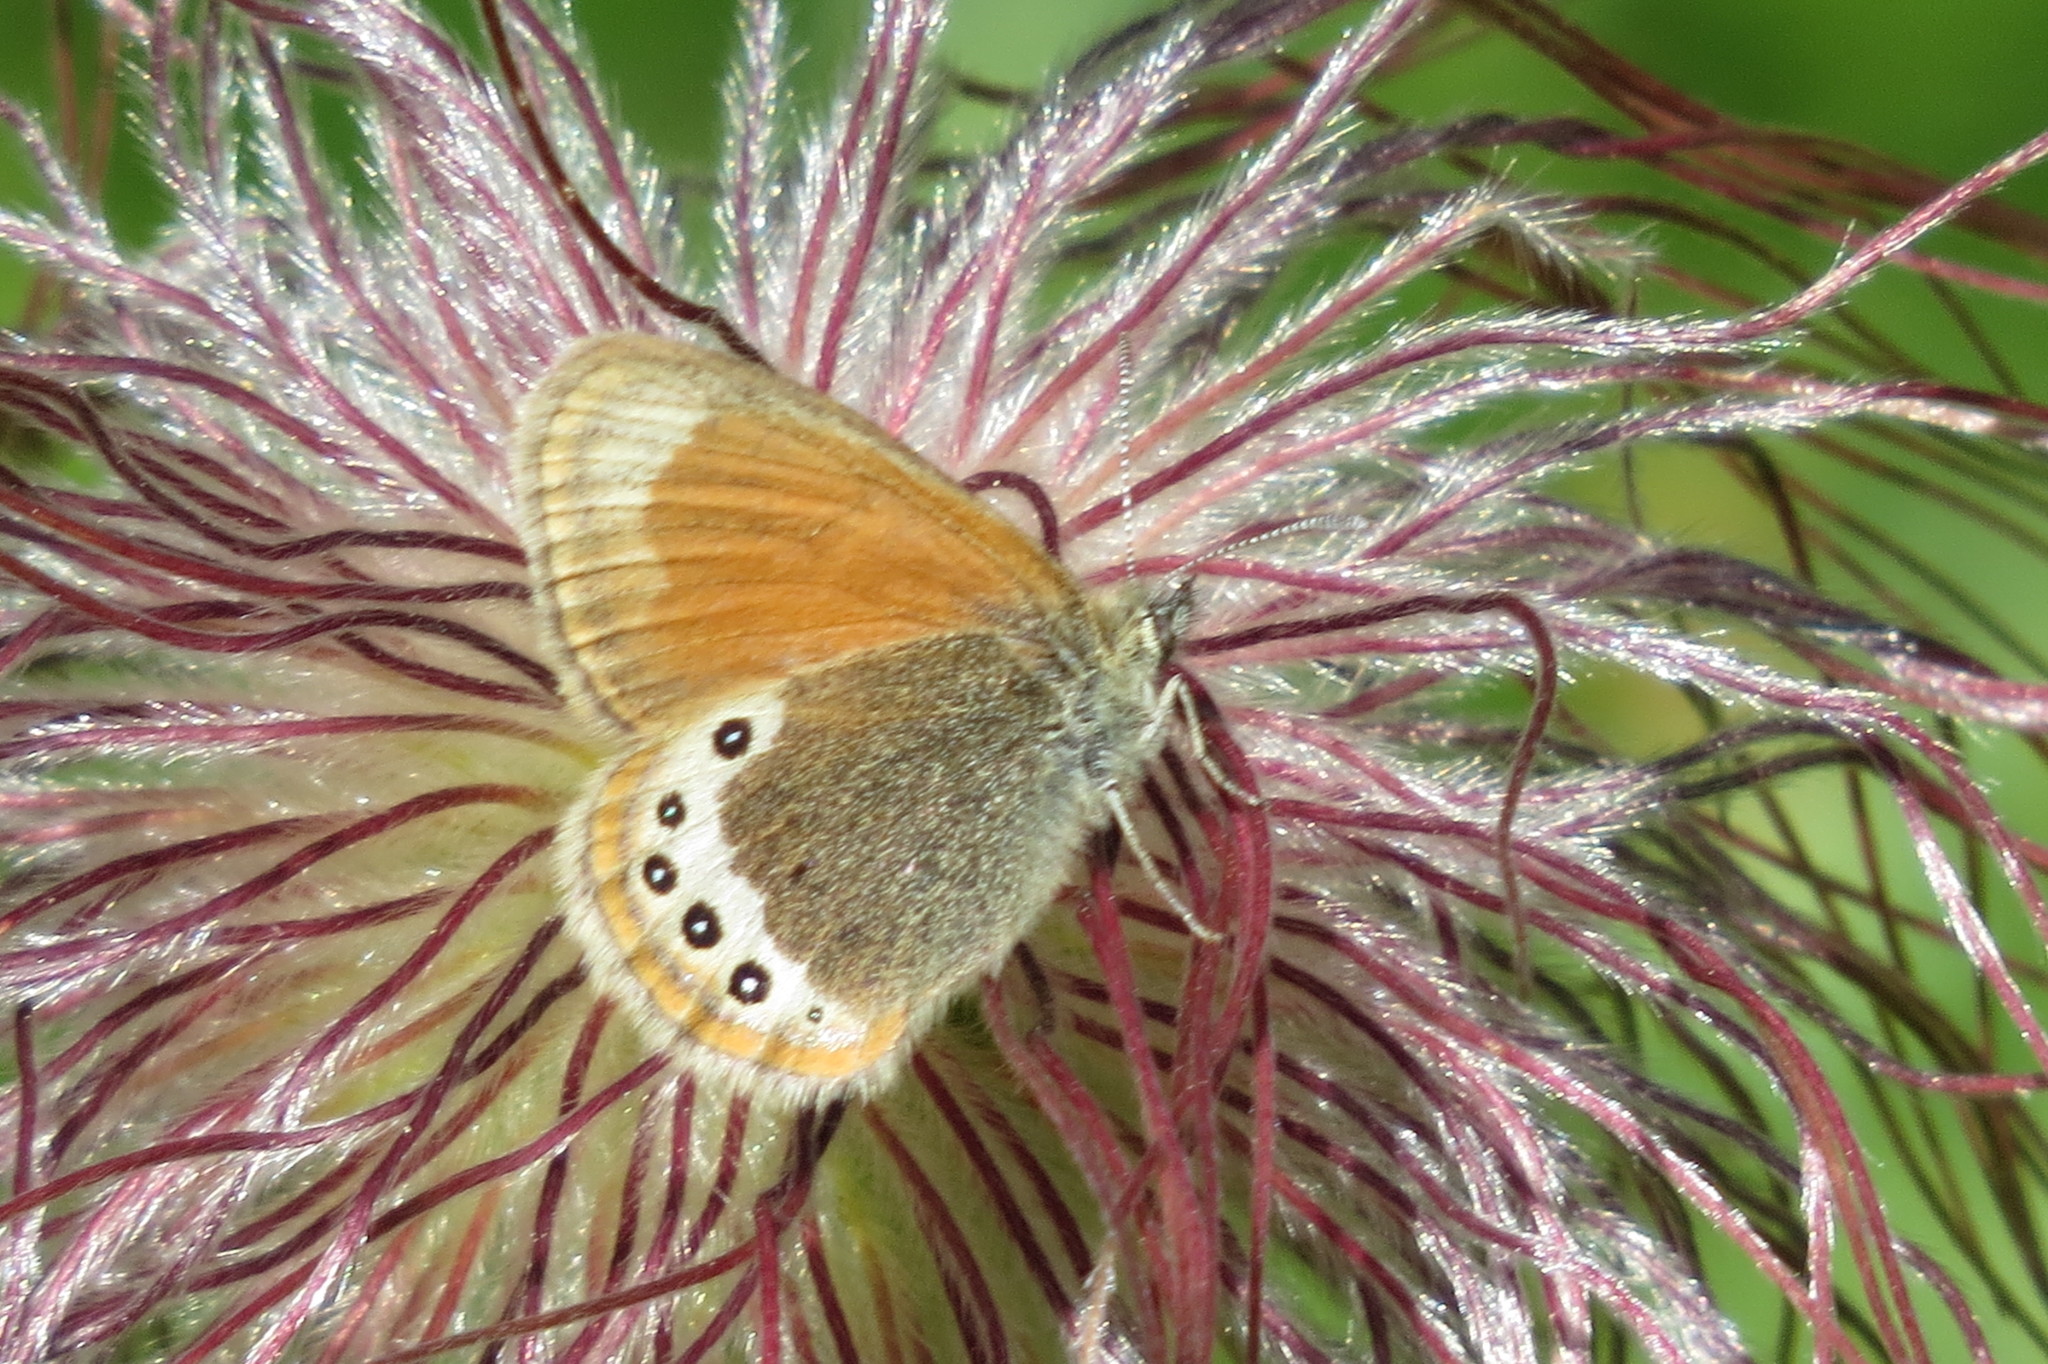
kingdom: Animalia
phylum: Arthropoda
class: Insecta
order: Lepidoptera
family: Nymphalidae
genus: Coenonympha
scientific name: Coenonympha
